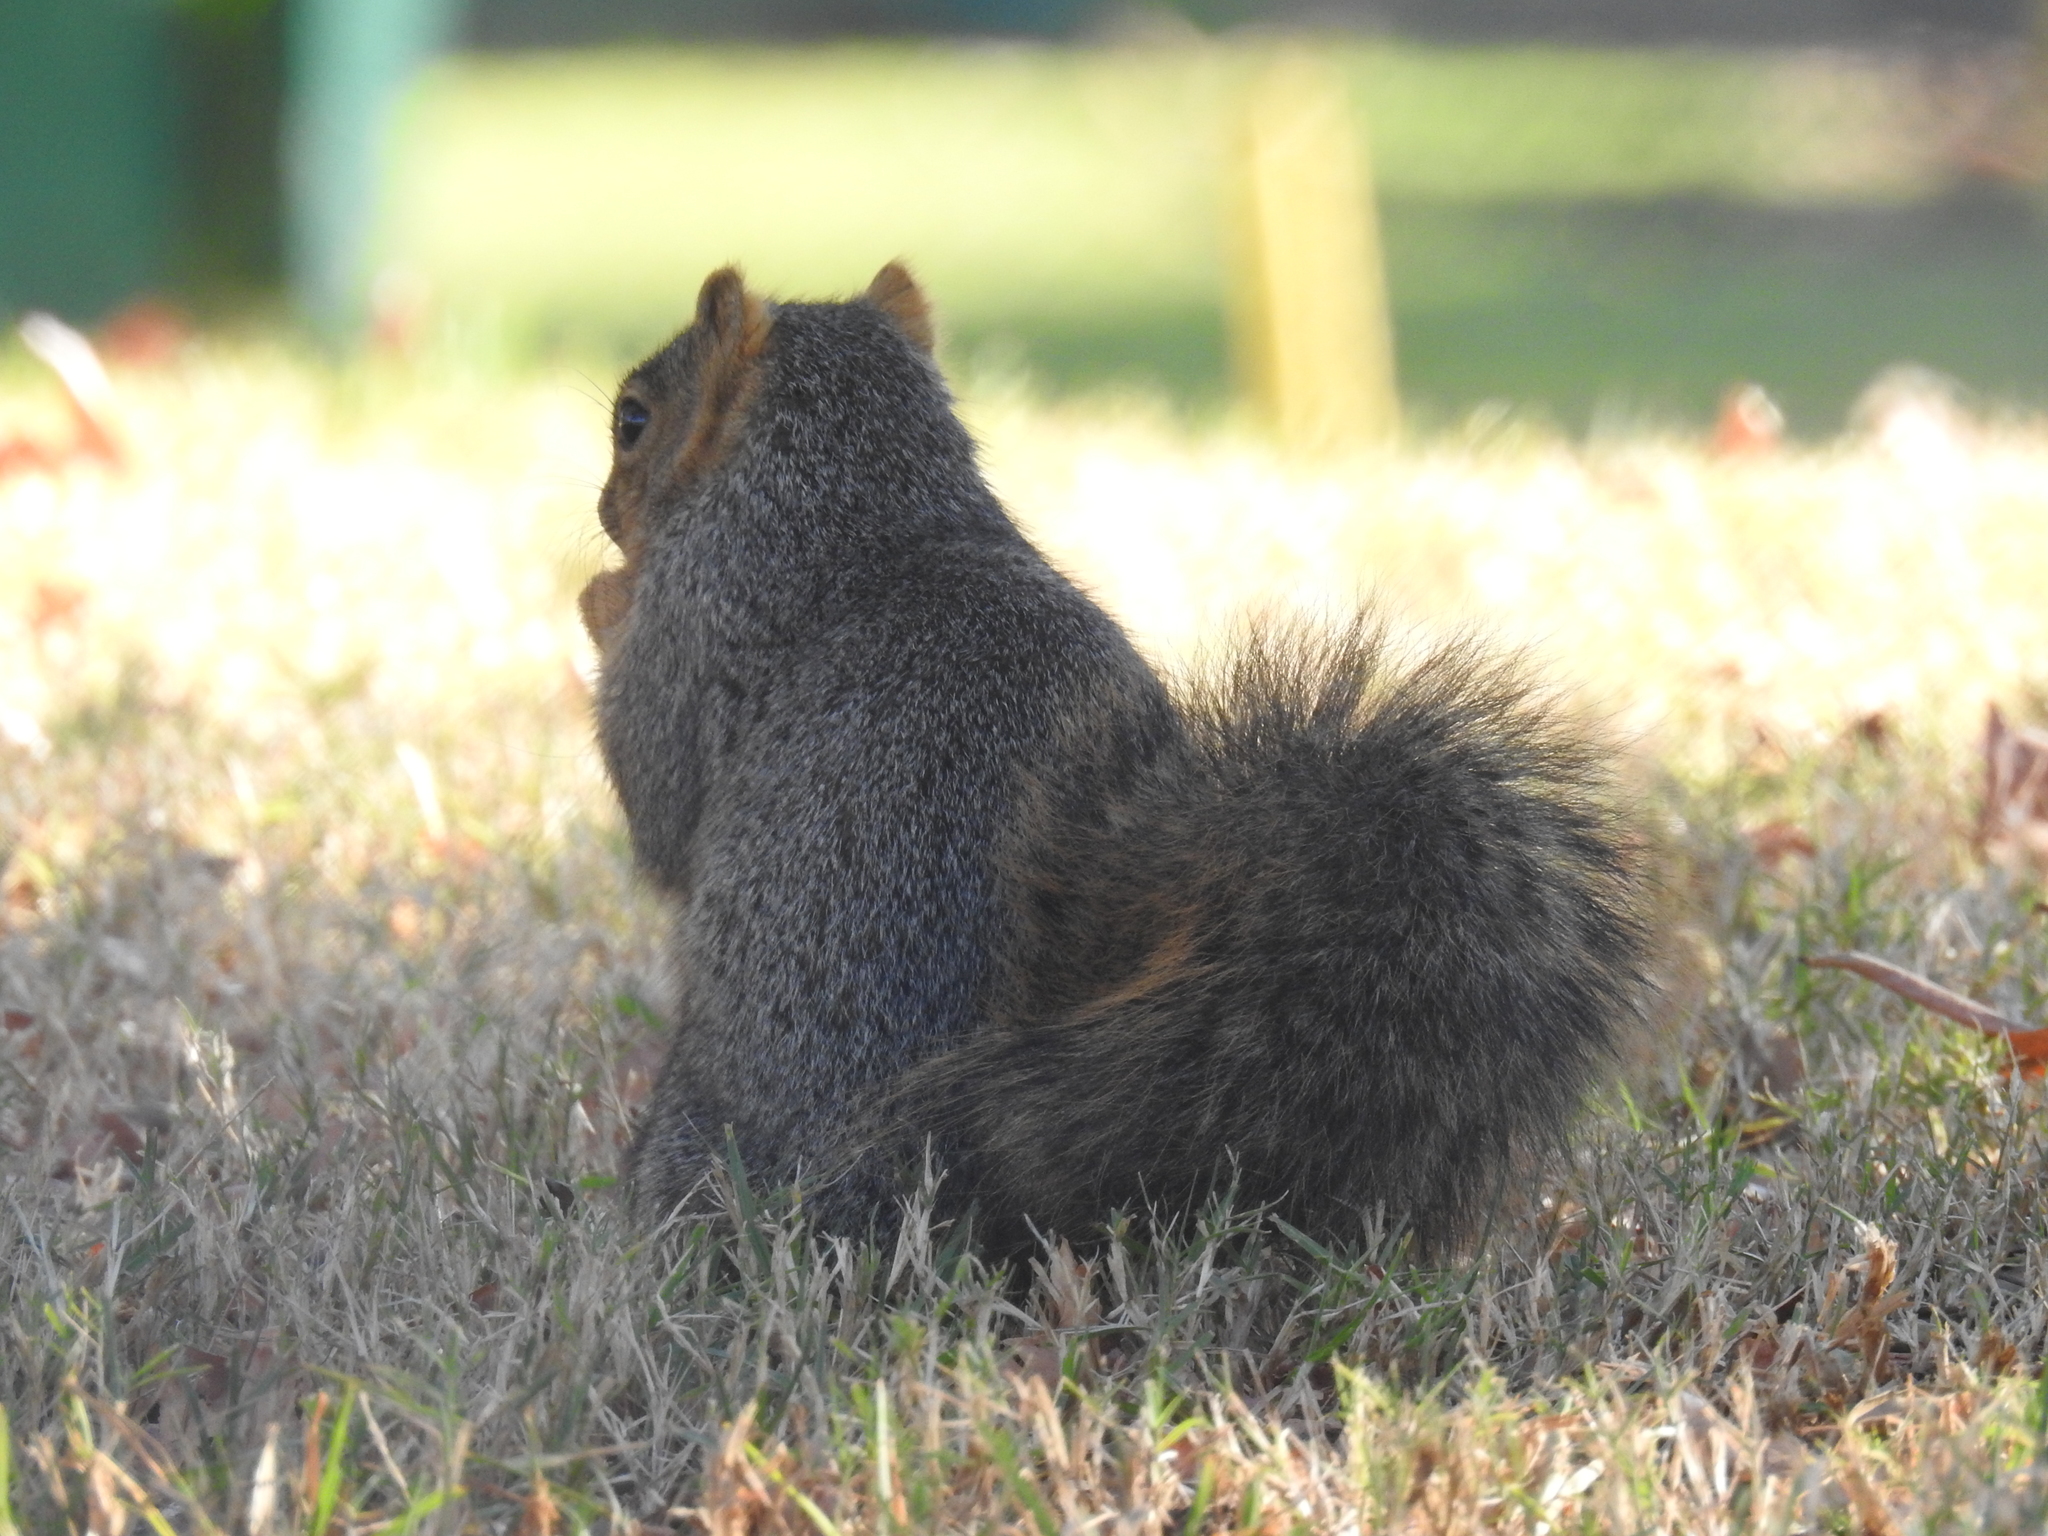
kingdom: Animalia
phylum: Chordata
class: Mammalia
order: Rodentia
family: Sciuridae
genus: Sciurus
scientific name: Sciurus niger
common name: Fox squirrel
